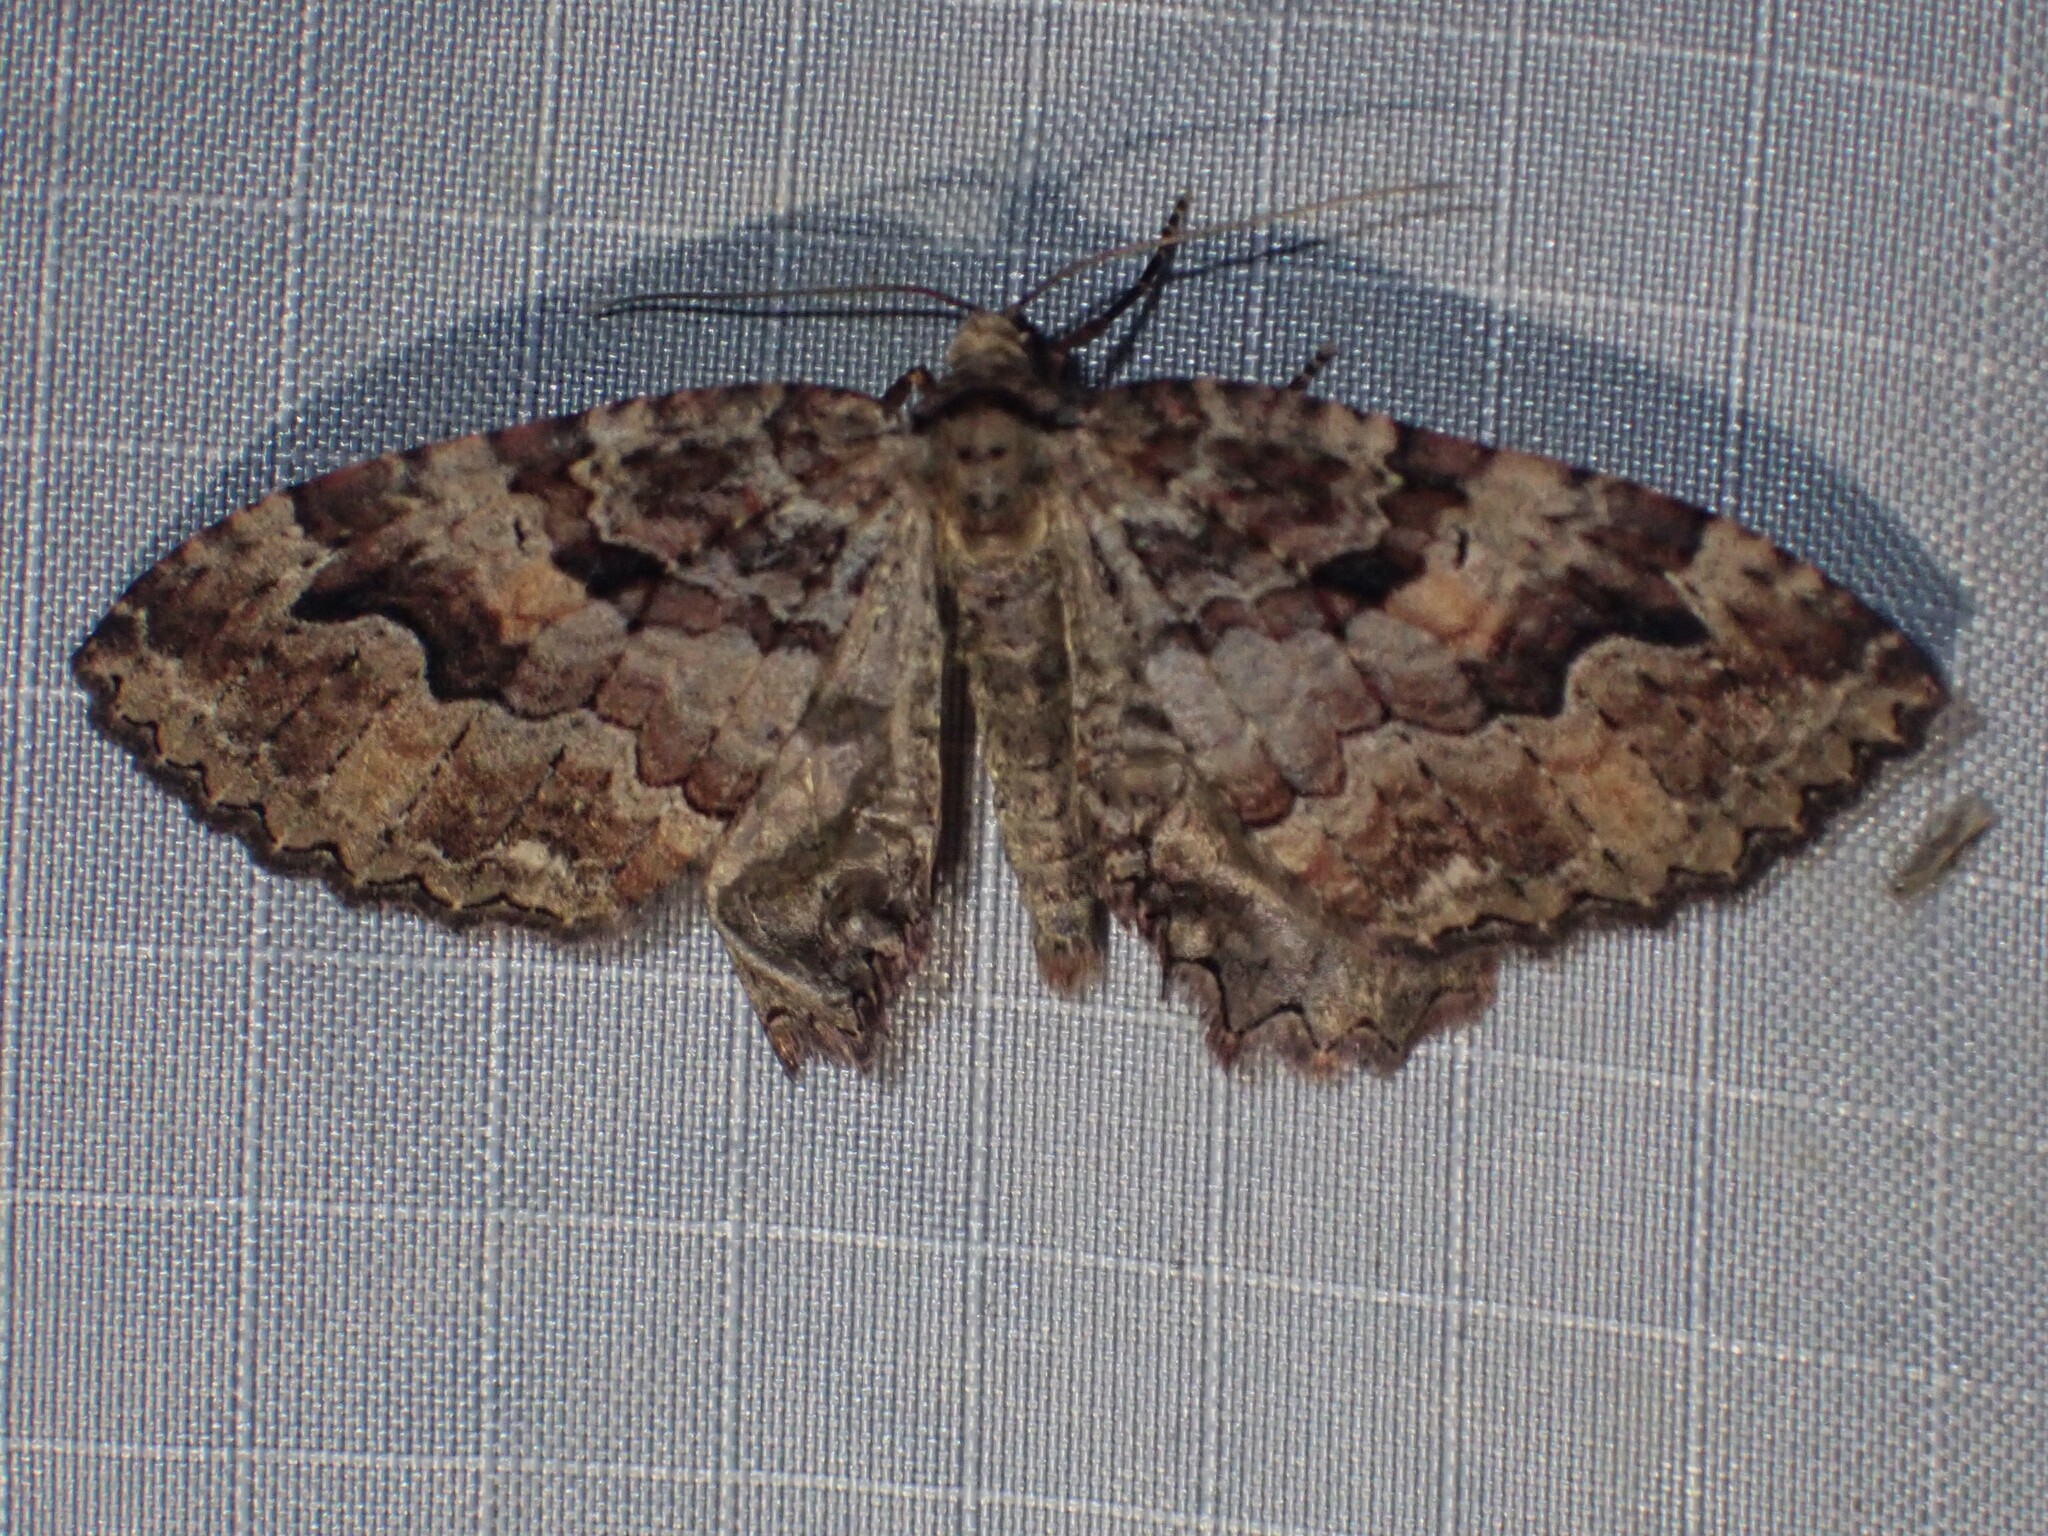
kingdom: Animalia
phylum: Arthropoda
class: Insecta
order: Lepidoptera
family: Geometridae
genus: Triphosa
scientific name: Triphosa haesitata
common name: Tissue moth
